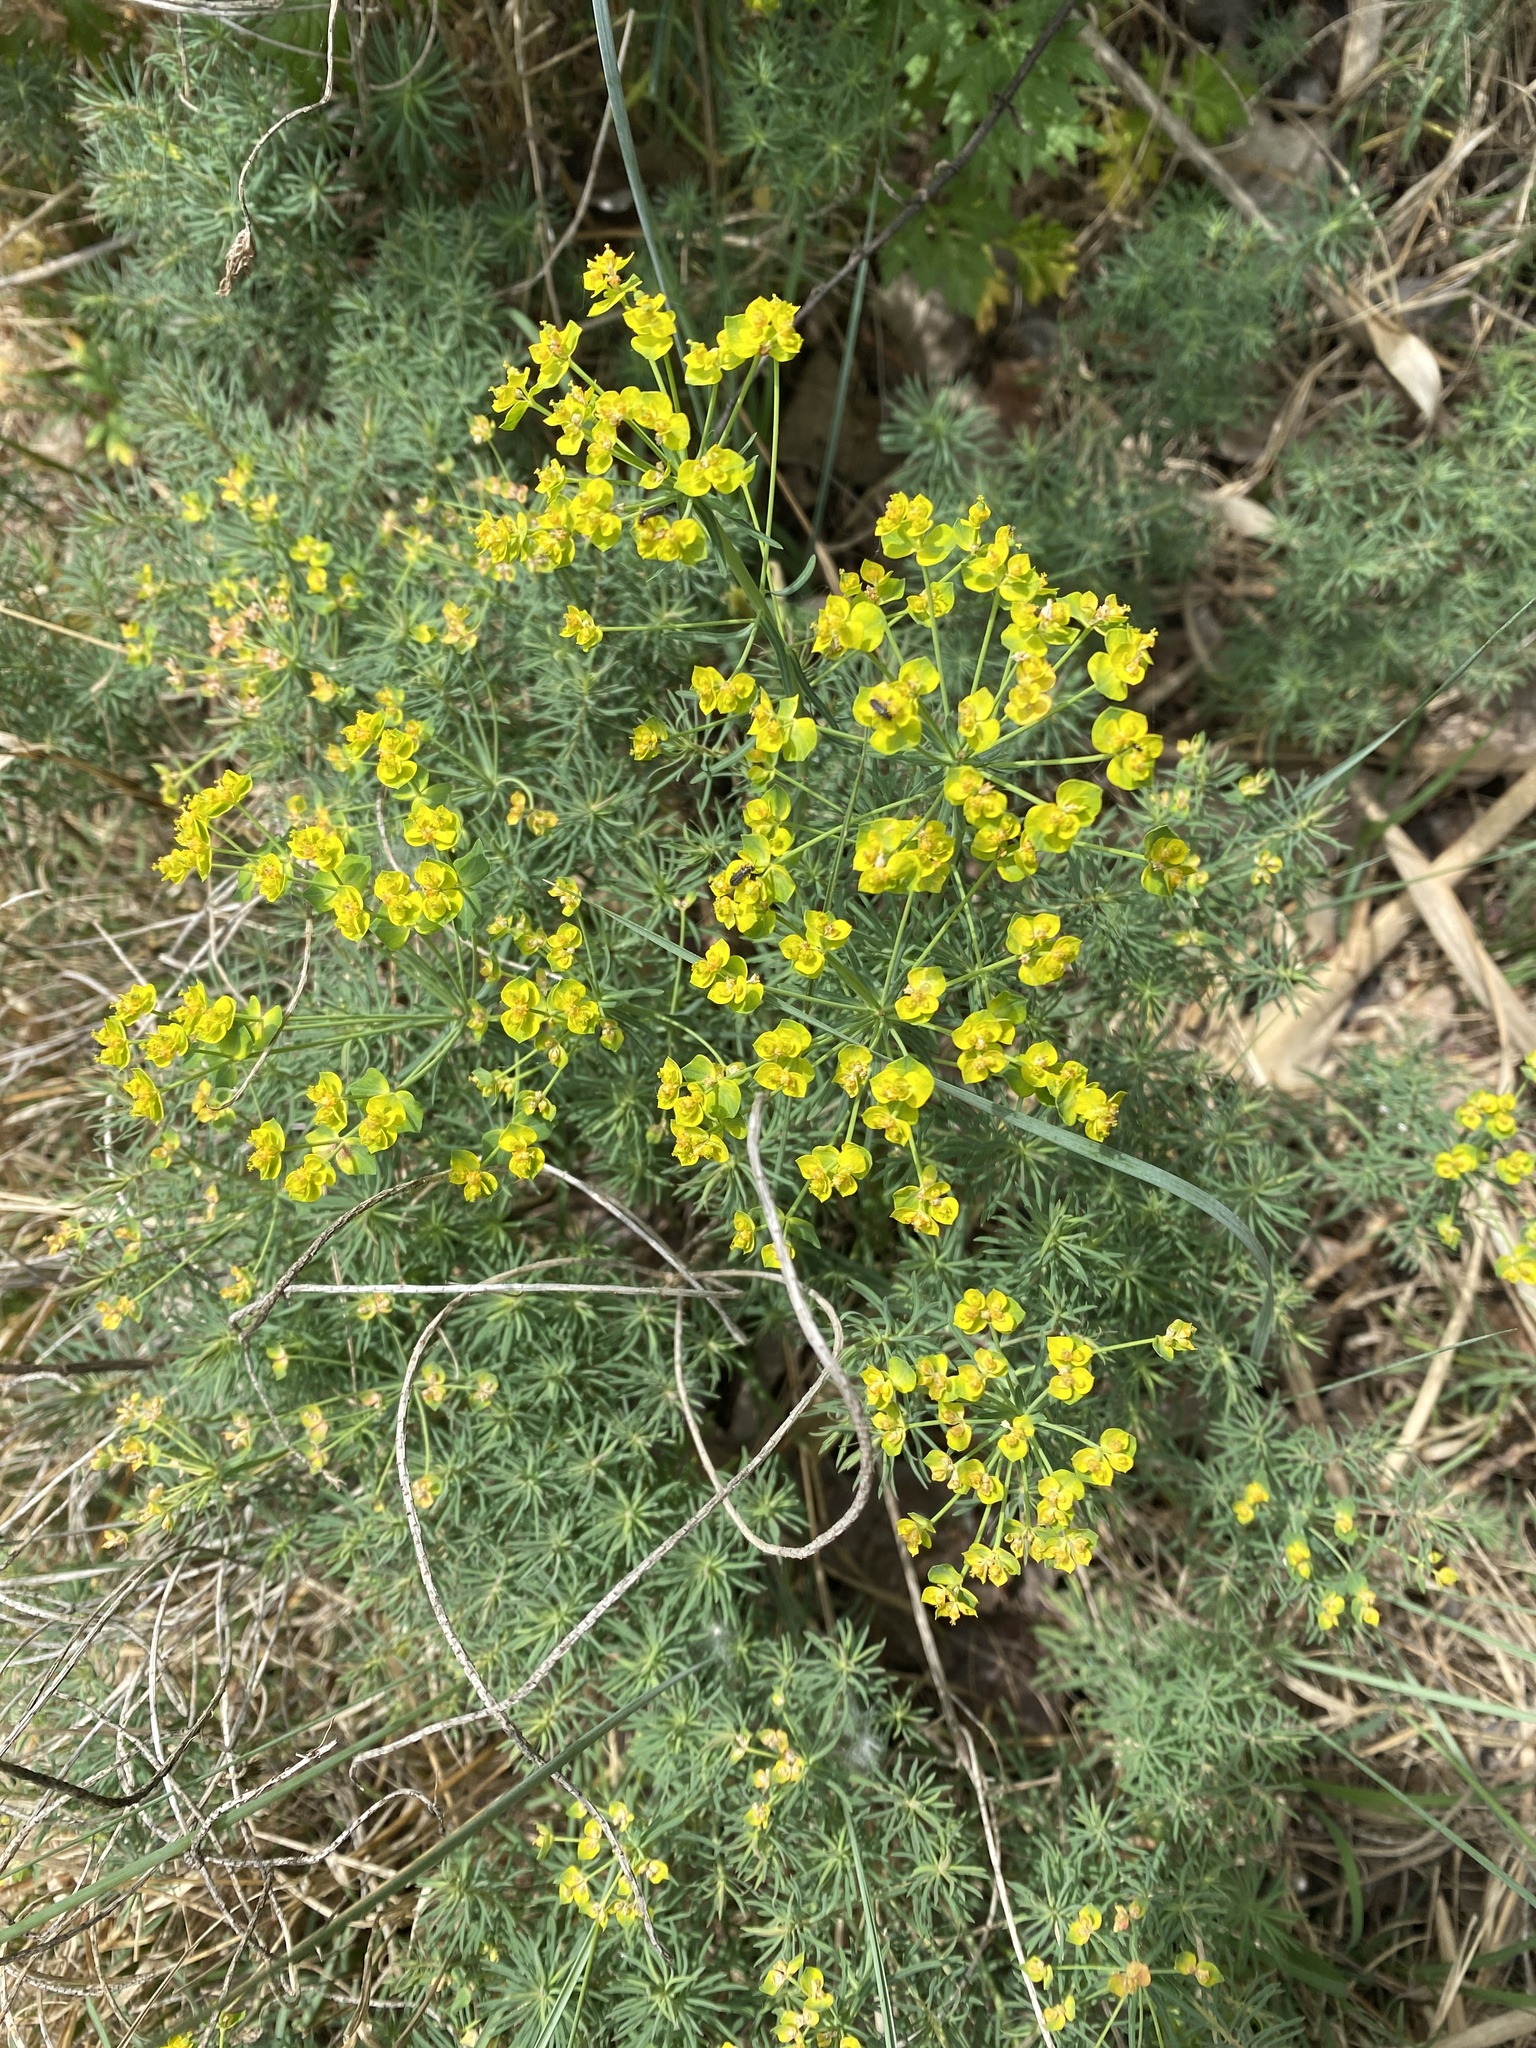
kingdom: Plantae
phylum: Tracheophyta
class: Magnoliopsida
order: Malpighiales
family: Euphorbiaceae
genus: Euphorbia
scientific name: Euphorbia cyparissias
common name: Cypress spurge
